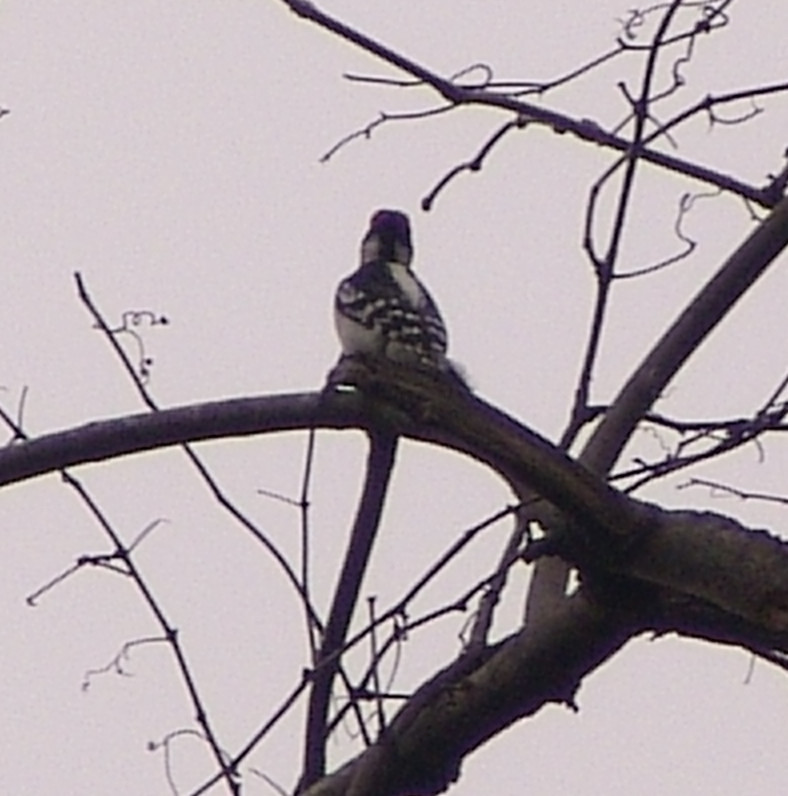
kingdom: Animalia
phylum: Chordata
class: Aves
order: Piciformes
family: Picidae
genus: Leuconotopicus
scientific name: Leuconotopicus villosus
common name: Hairy woodpecker
